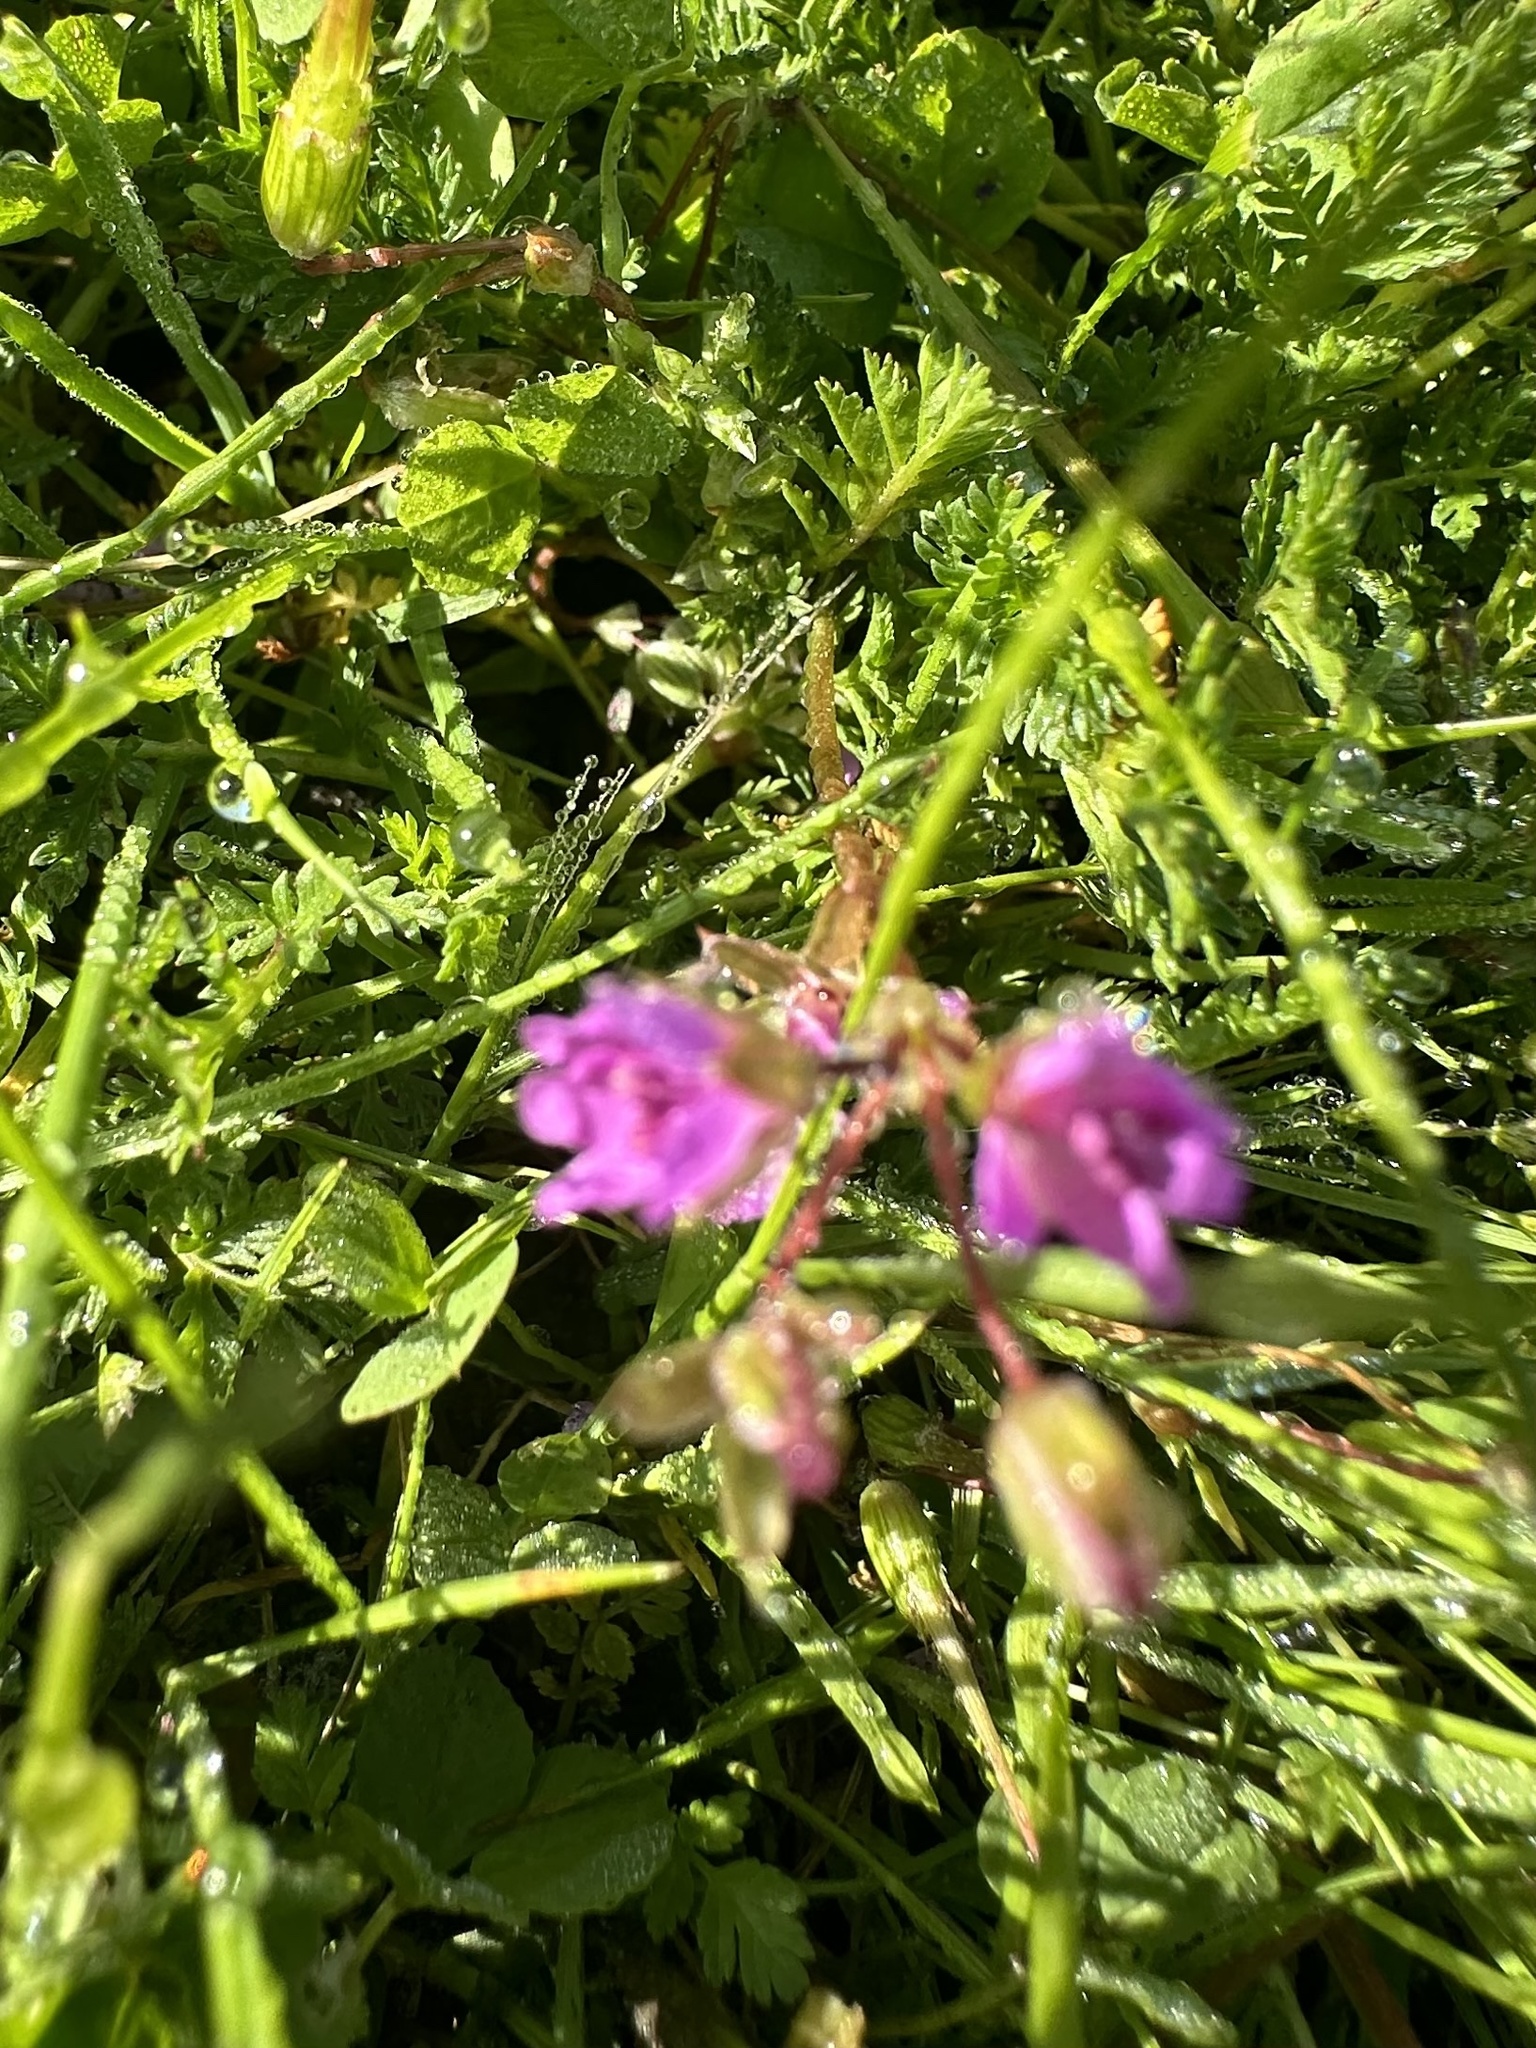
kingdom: Plantae
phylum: Tracheophyta
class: Magnoliopsida
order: Geraniales
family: Geraniaceae
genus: Erodium
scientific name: Erodium cicutarium
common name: Common stork's-bill
